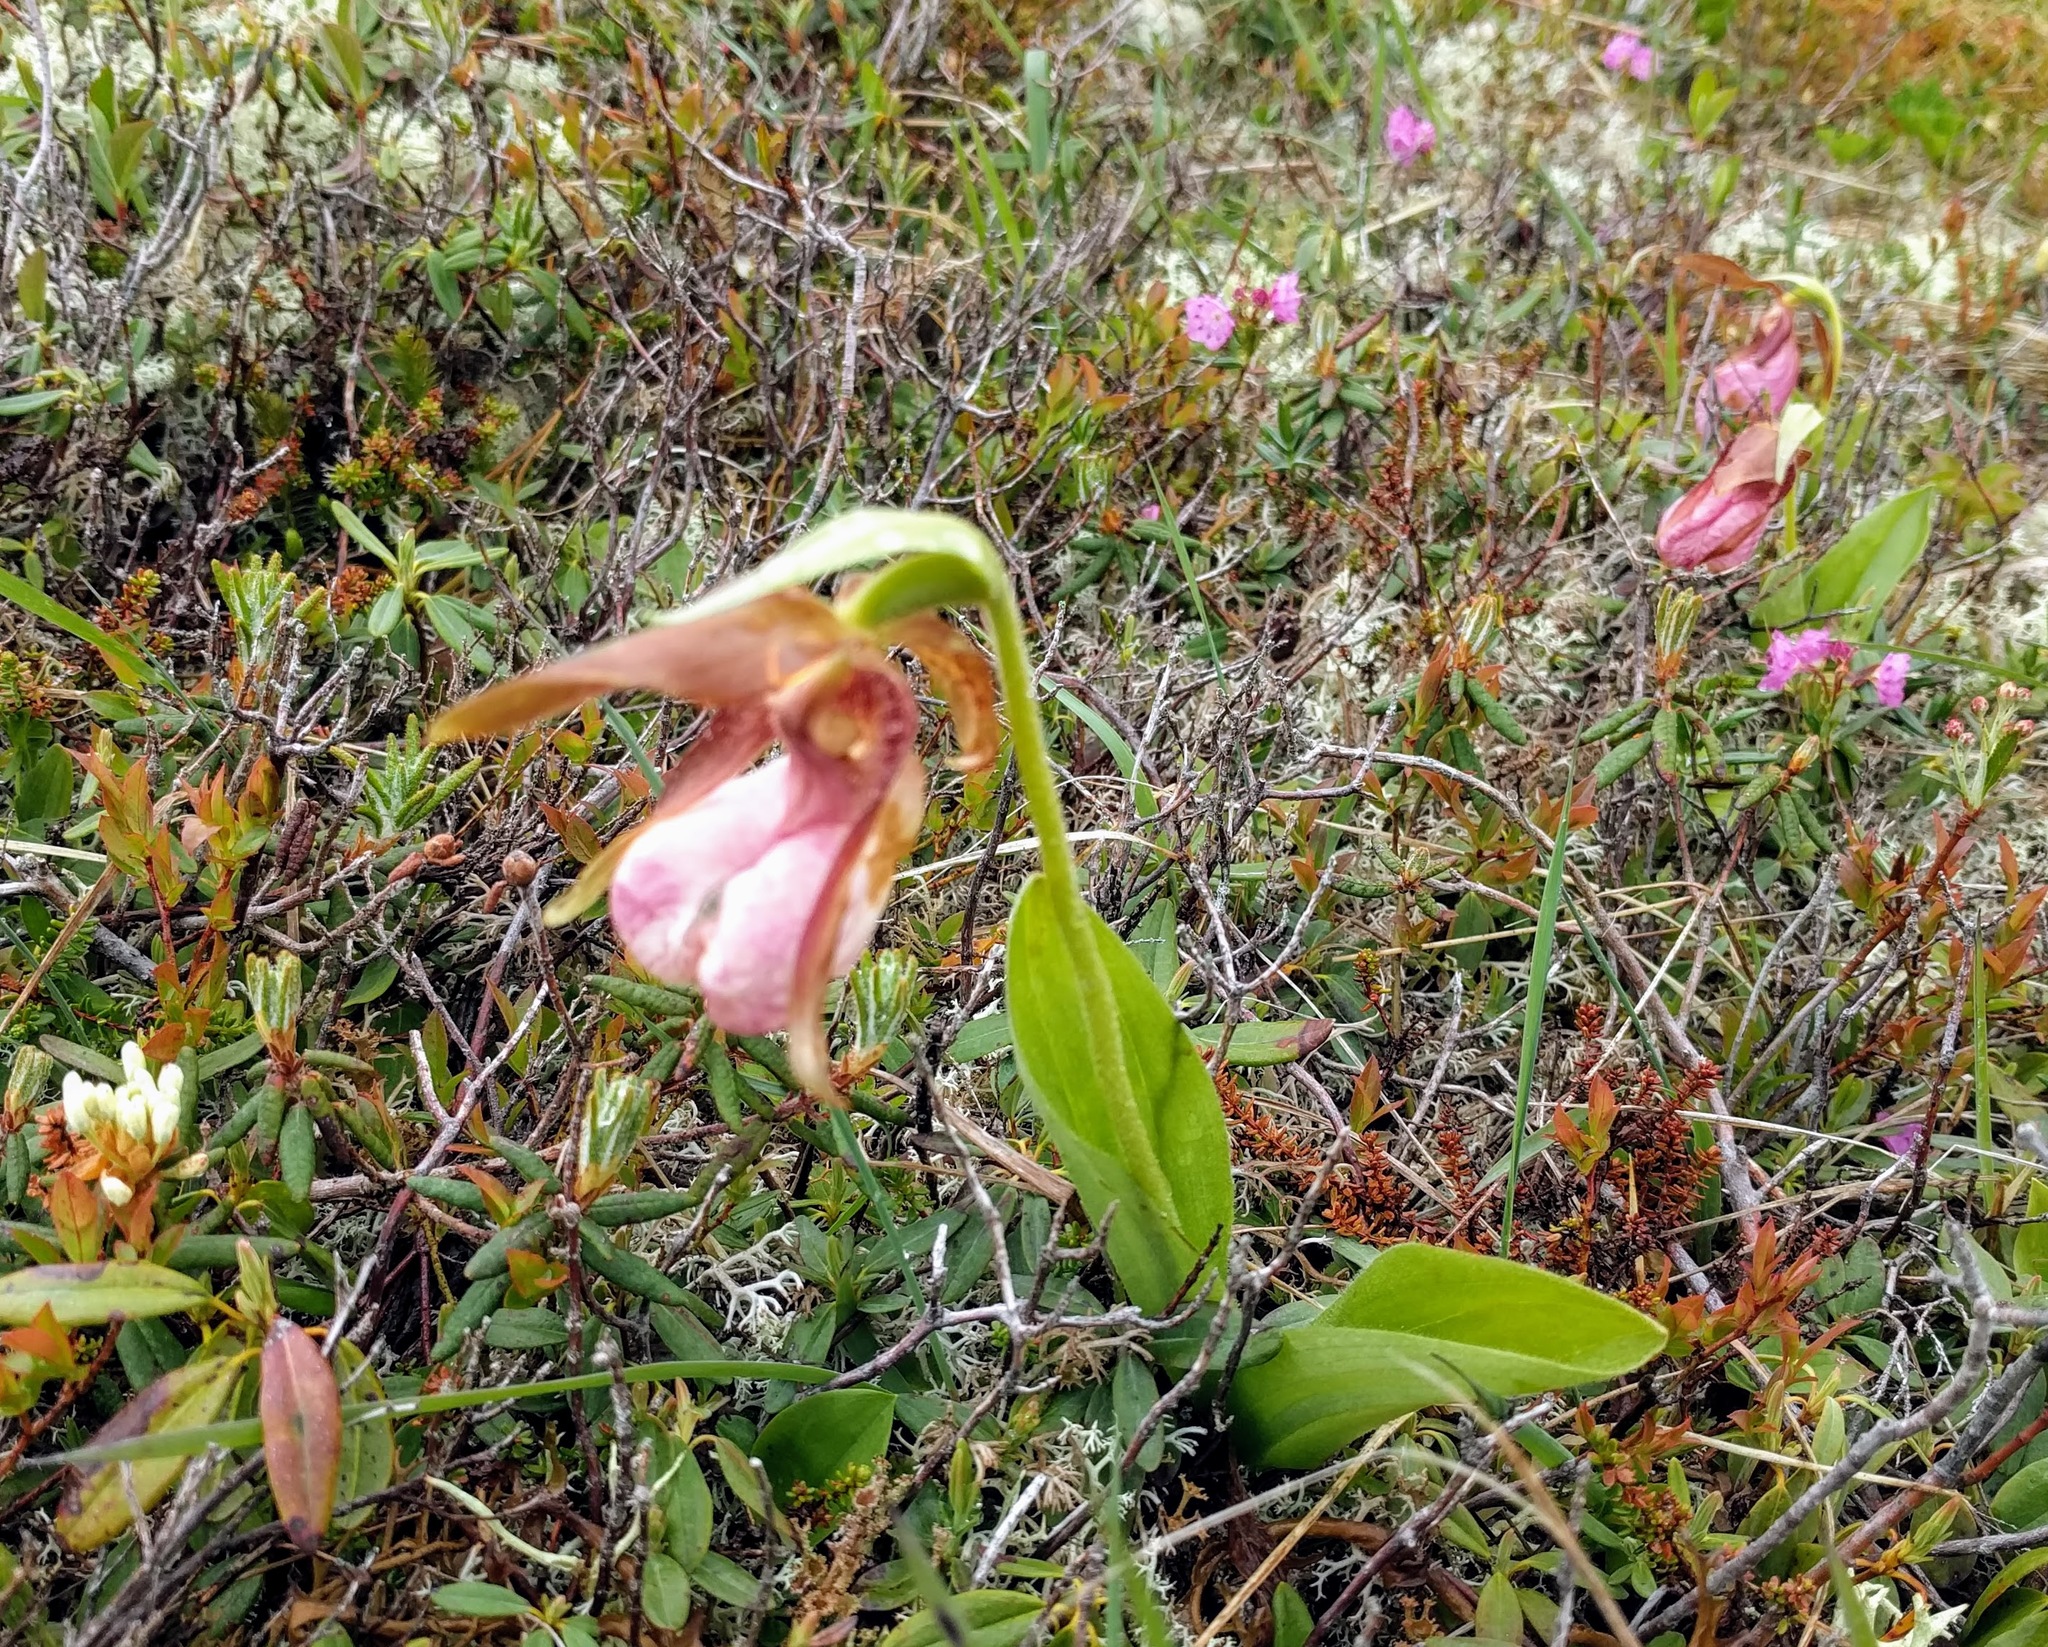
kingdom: Plantae
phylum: Tracheophyta
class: Liliopsida
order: Asparagales
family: Orchidaceae
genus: Cypripedium
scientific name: Cypripedium acaule
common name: Pink lady's-slipper
